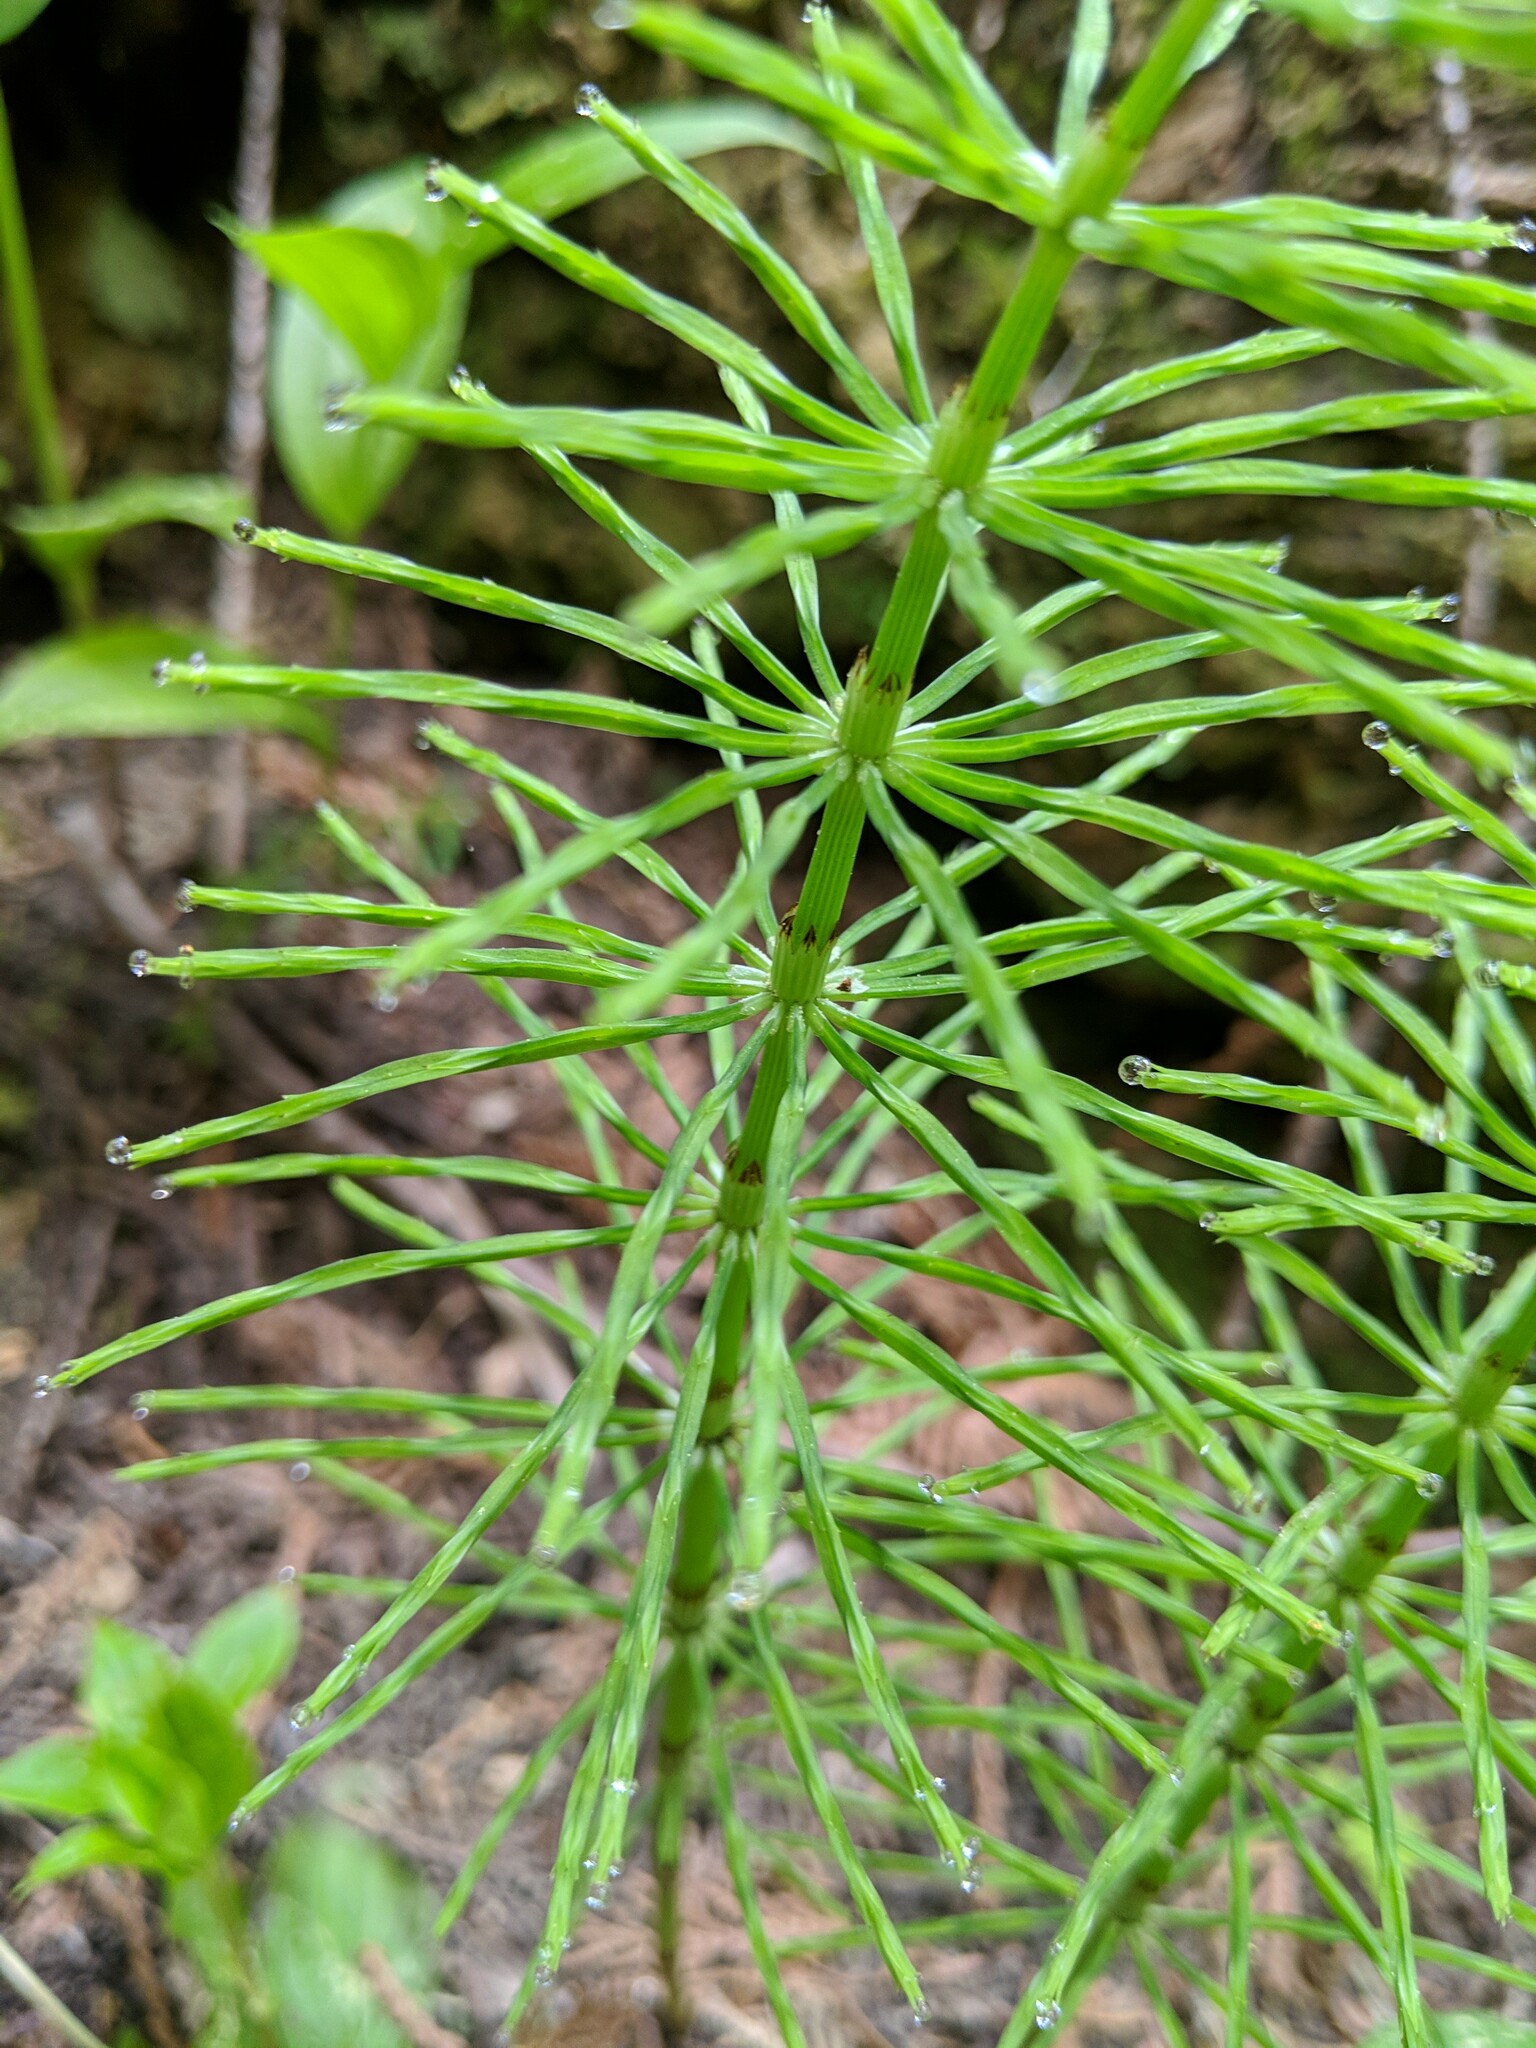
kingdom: Plantae
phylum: Tracheophyta
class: Polypodiopsida
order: Equisetales
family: Equisetaceae
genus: Equisetum
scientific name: Equisetum arvense
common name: Field horsetail
